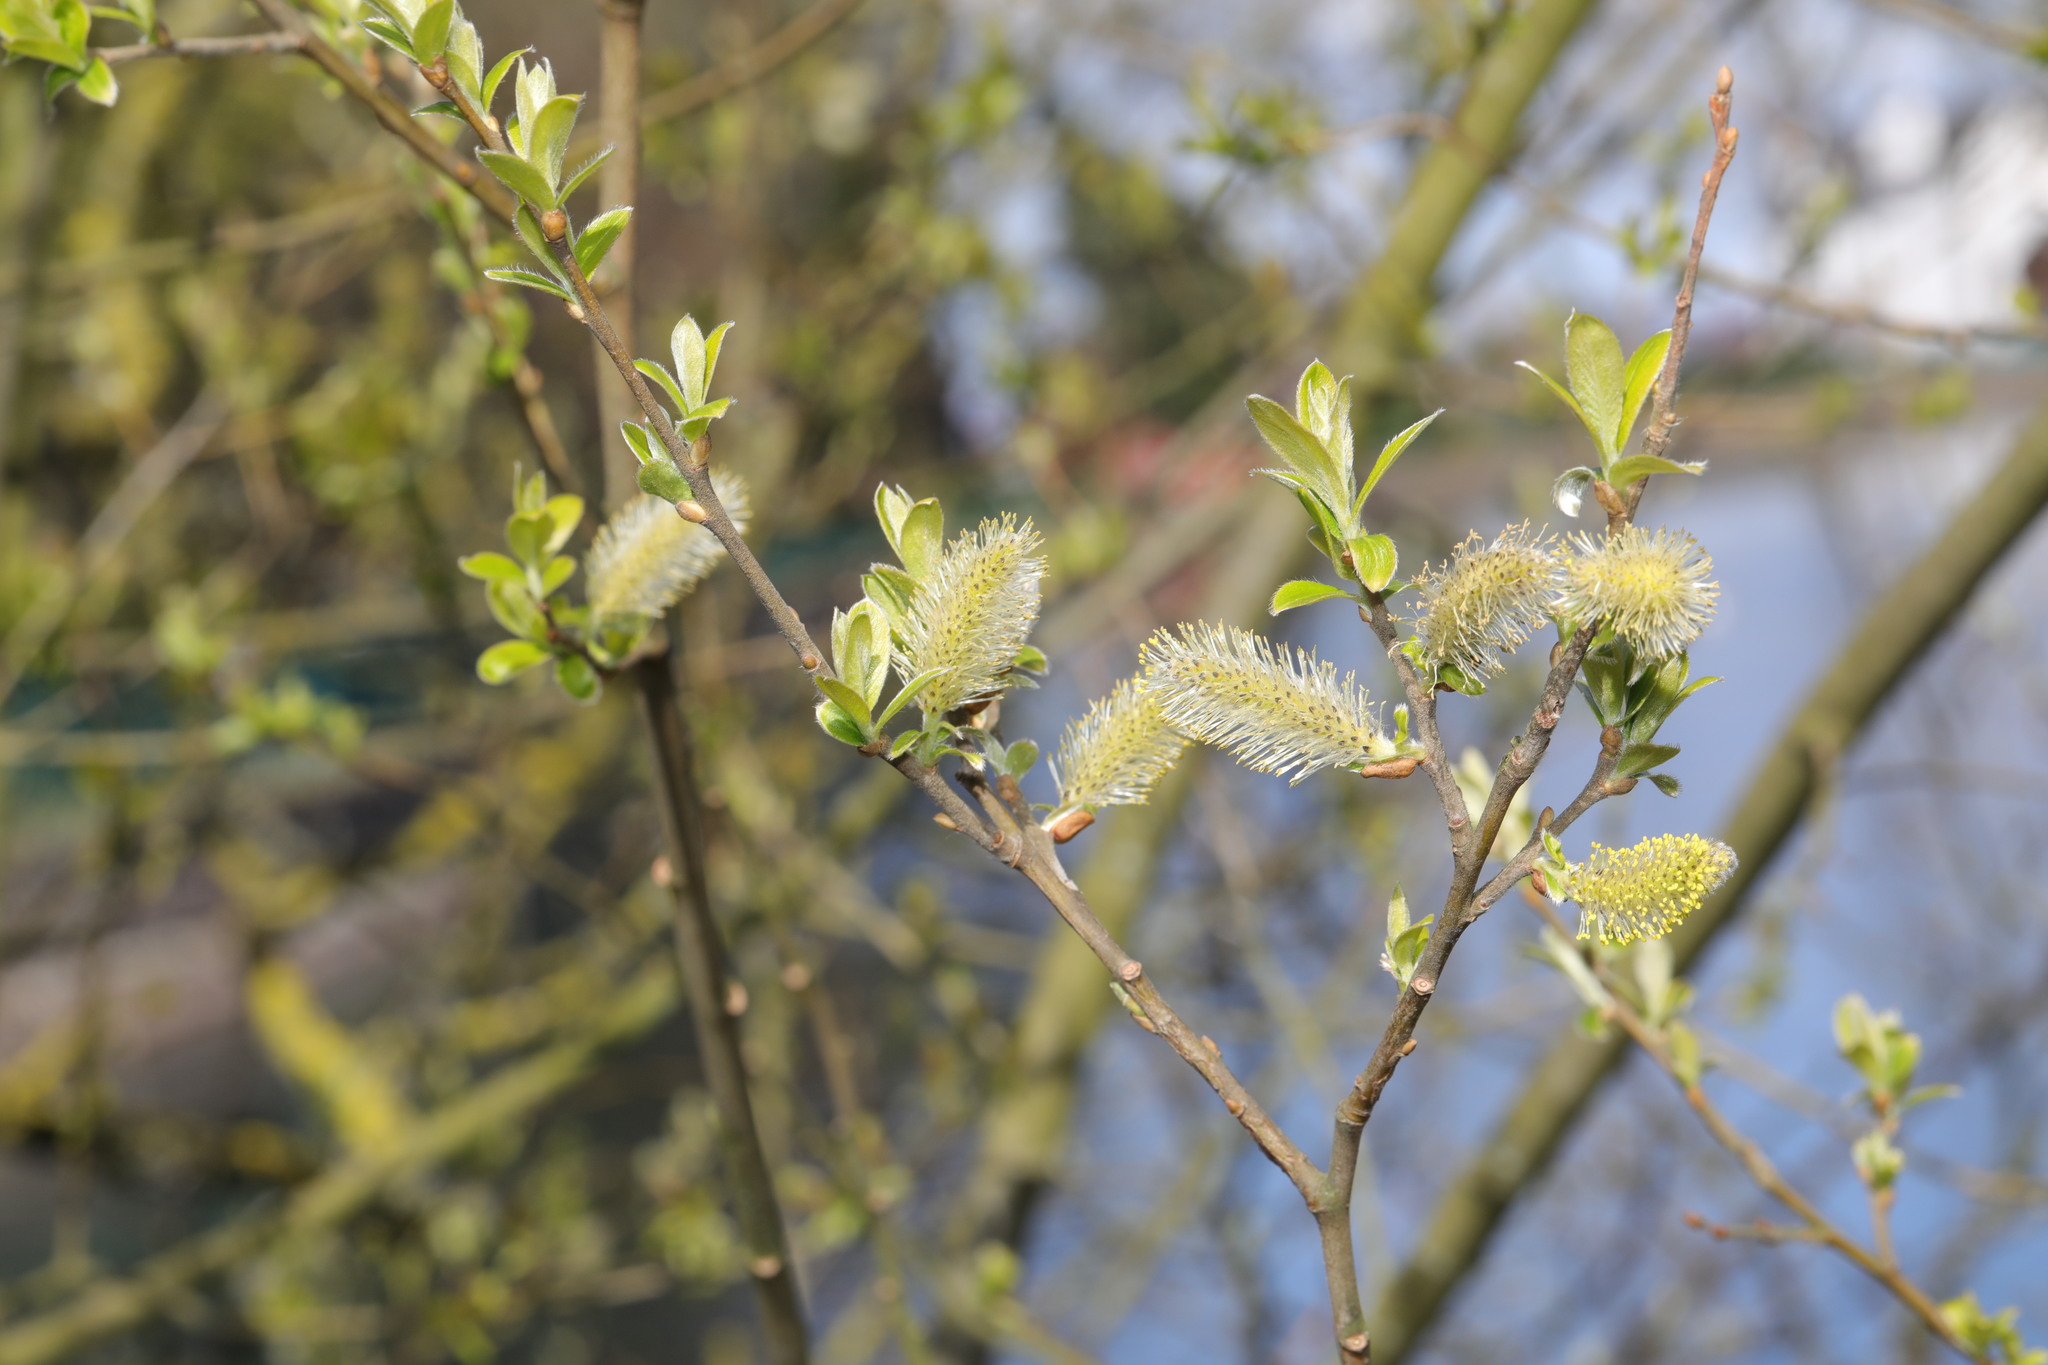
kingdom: Plantae
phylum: Tracheophyta
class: Magnoliopsida
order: Malpighiales
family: Salicaceae
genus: Salix
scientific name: Salix cinerea
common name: Common sallow
